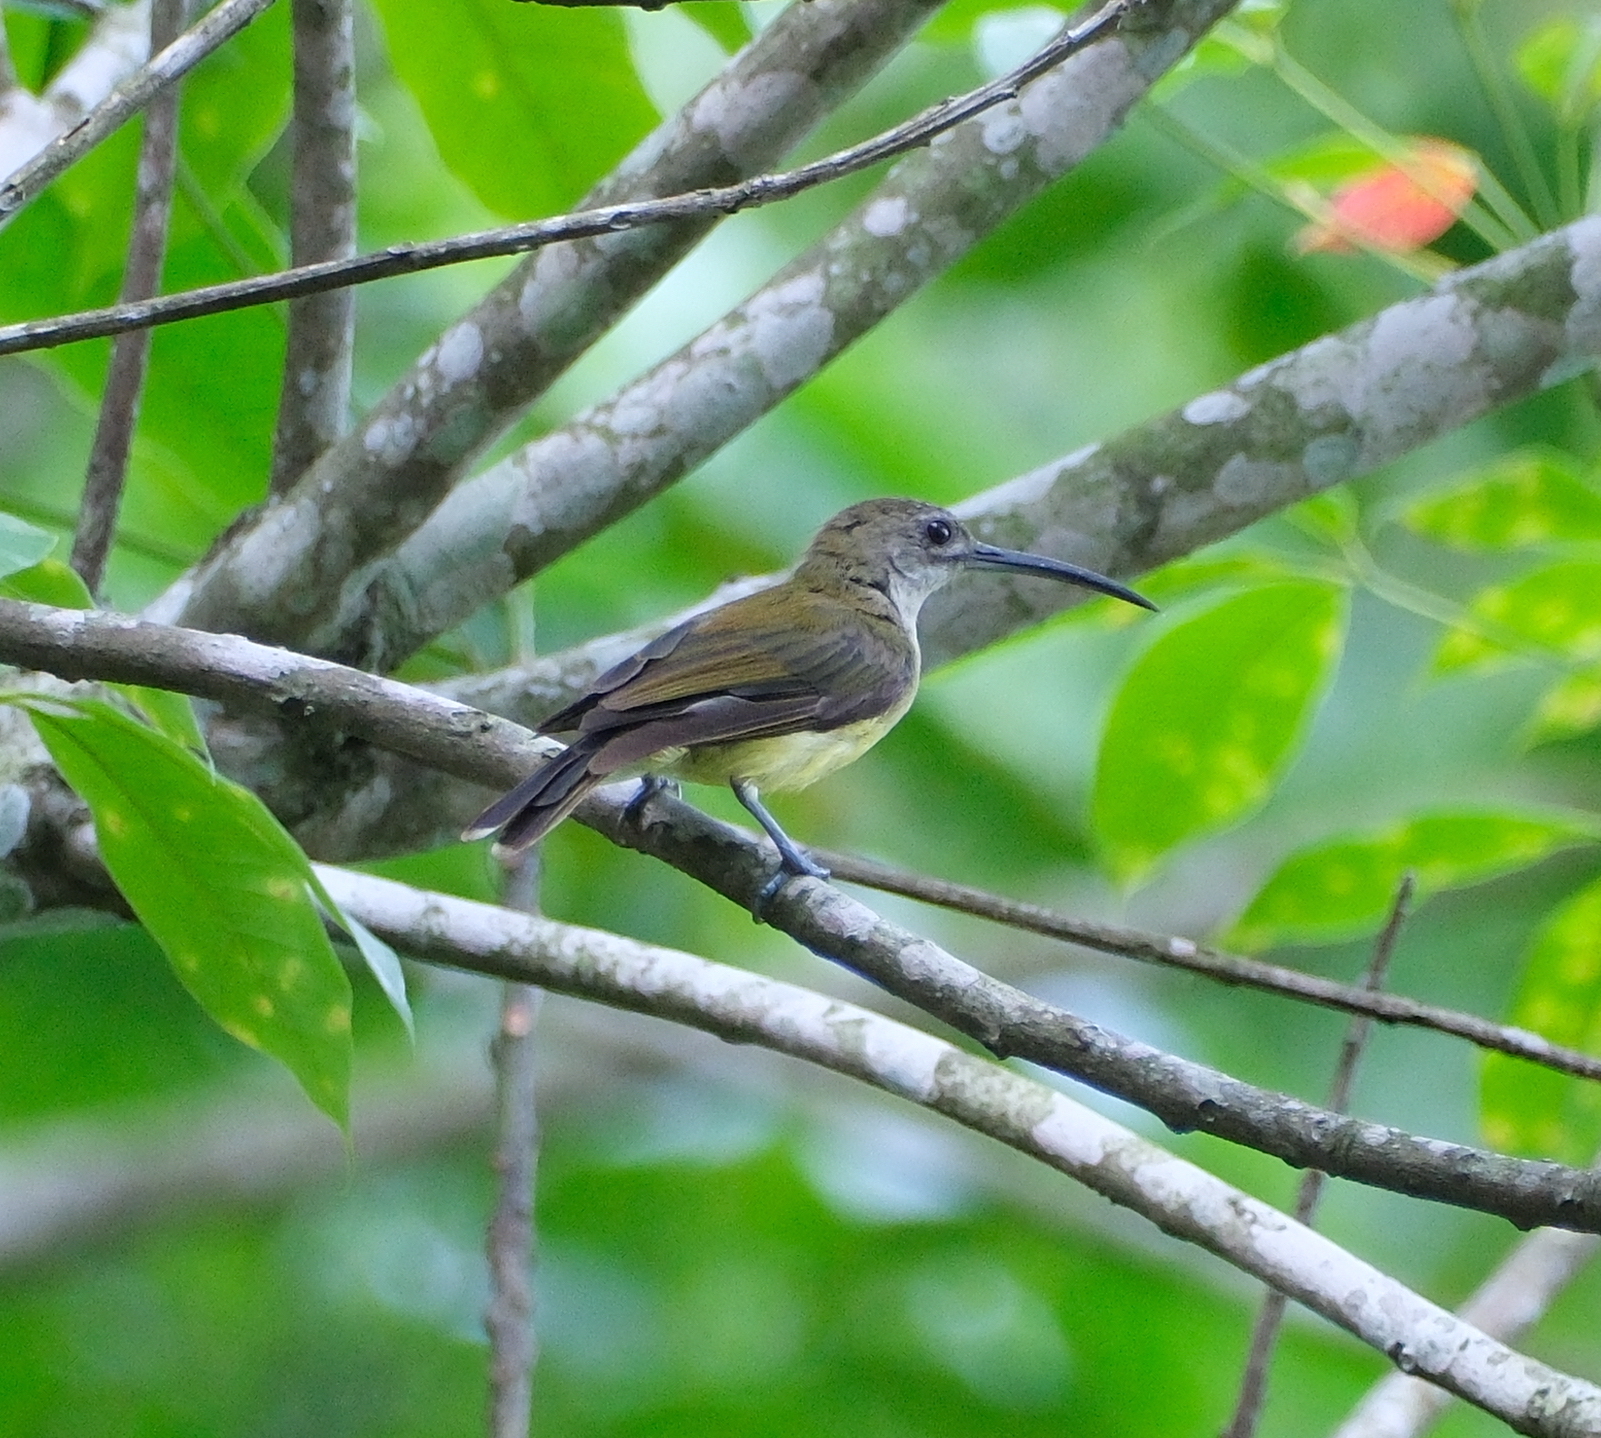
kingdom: Animalia
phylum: Chordata
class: Aves
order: Passeriformes
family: Nectariniidae
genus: Arachnothera
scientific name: Arachnothera longirostra
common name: Little spiderhunter
